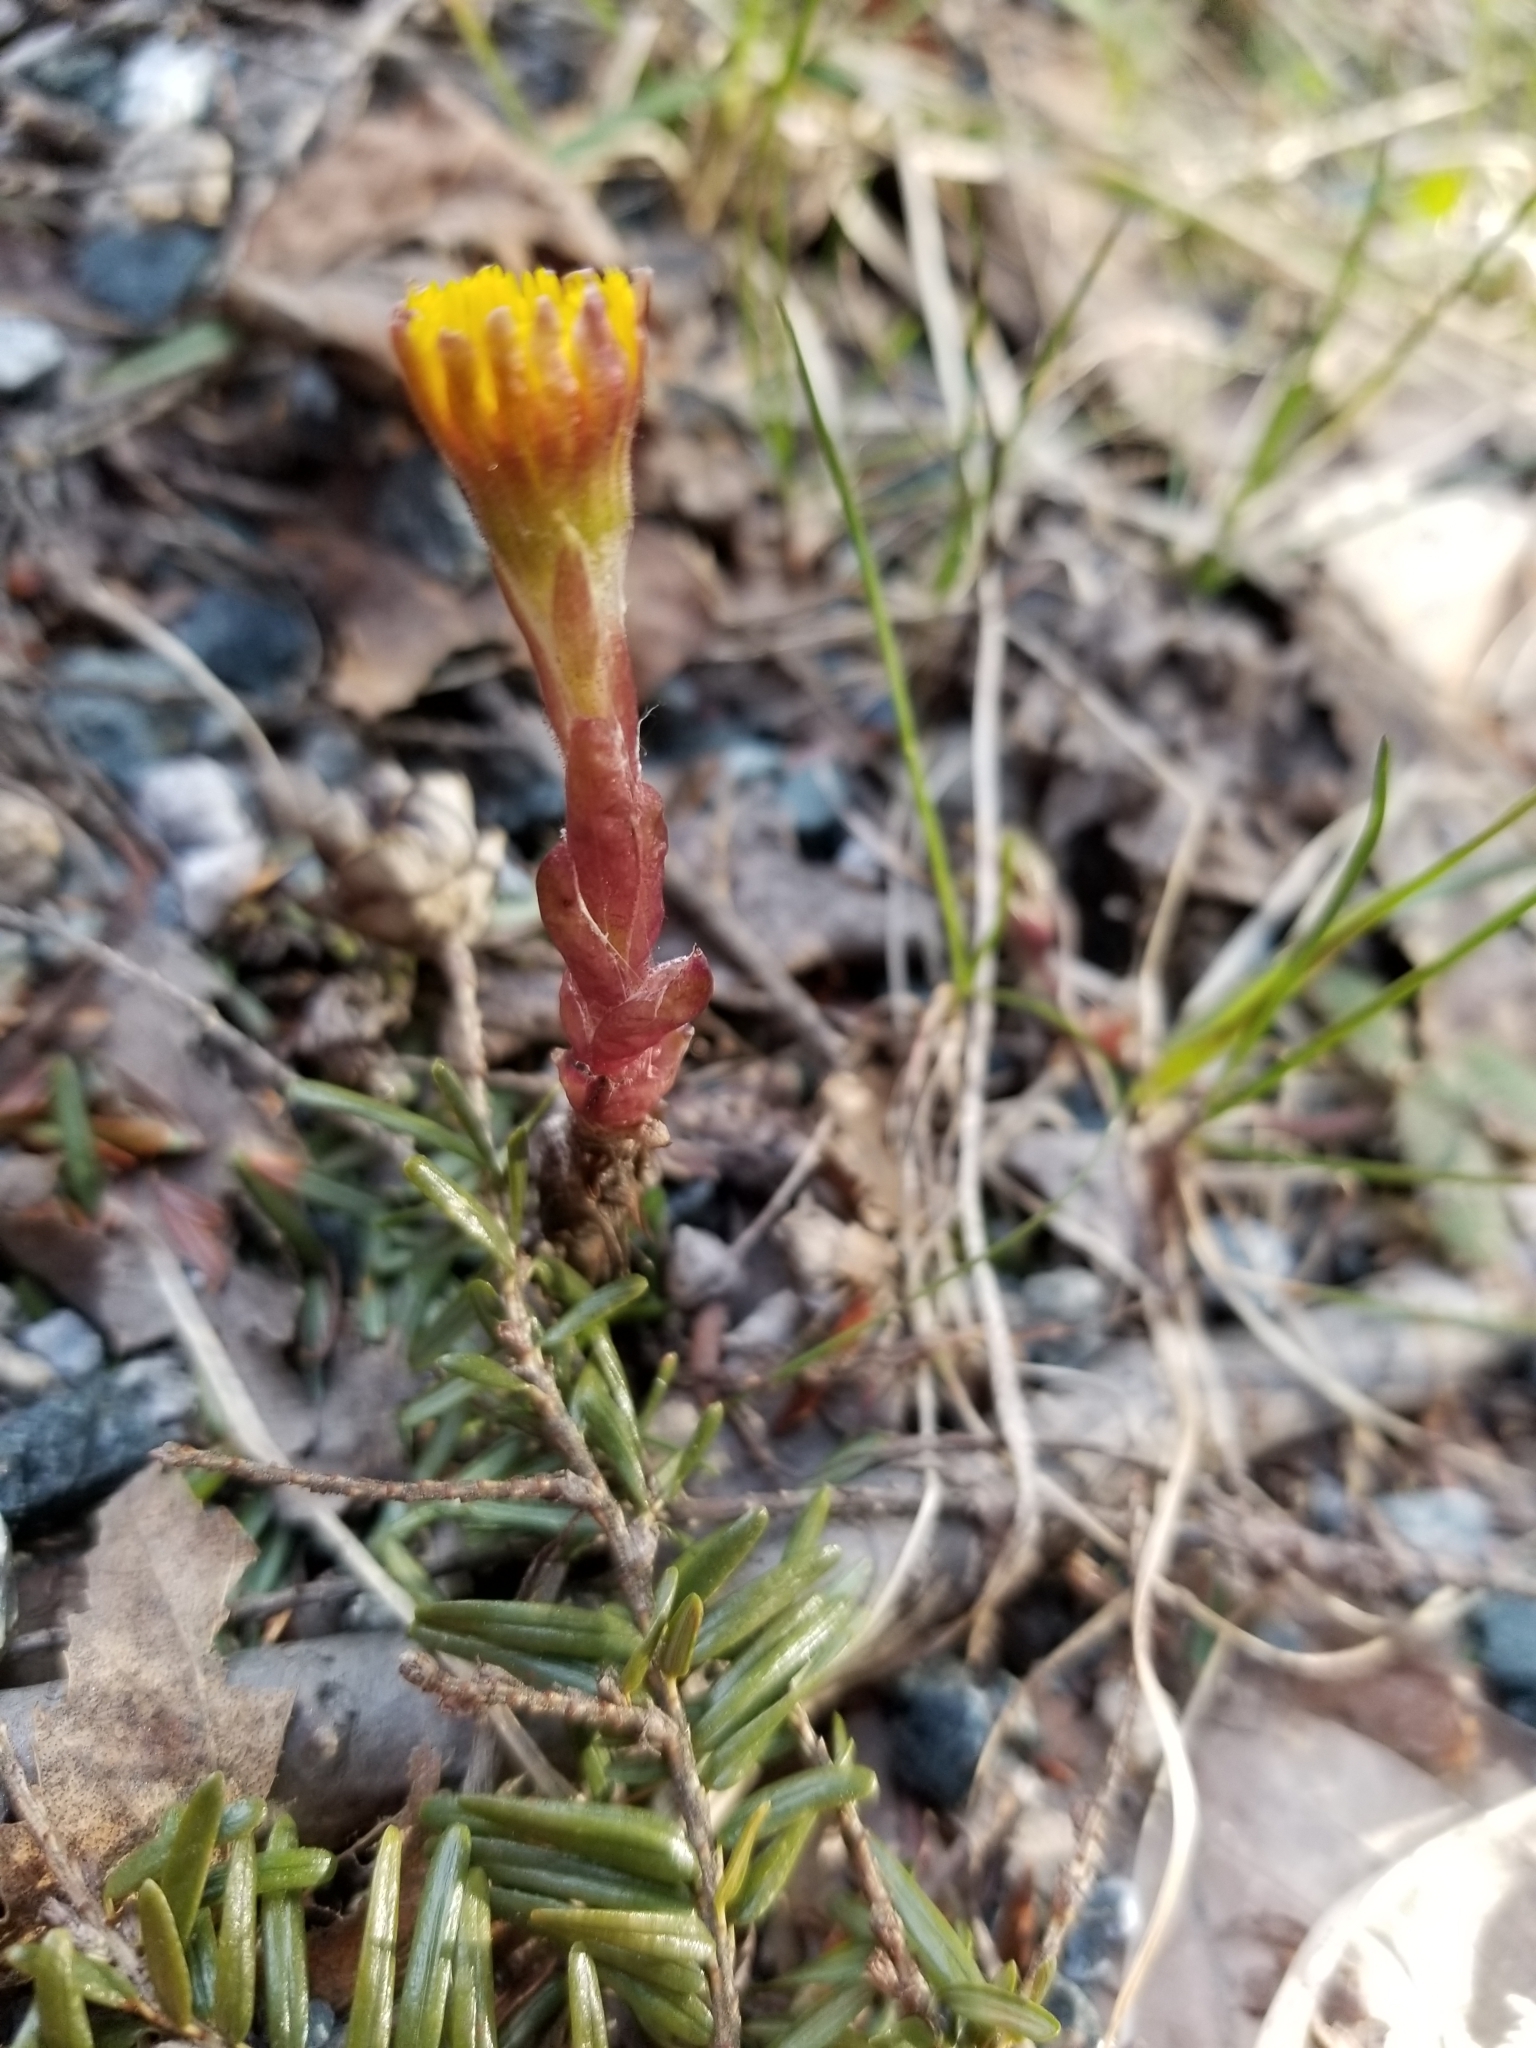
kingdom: Plantae
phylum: Tracheophyta
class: Magnoliopsida
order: Asterales
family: Asteraceae
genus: Tussilago
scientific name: Tussilago farfara
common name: Coltsfoot
